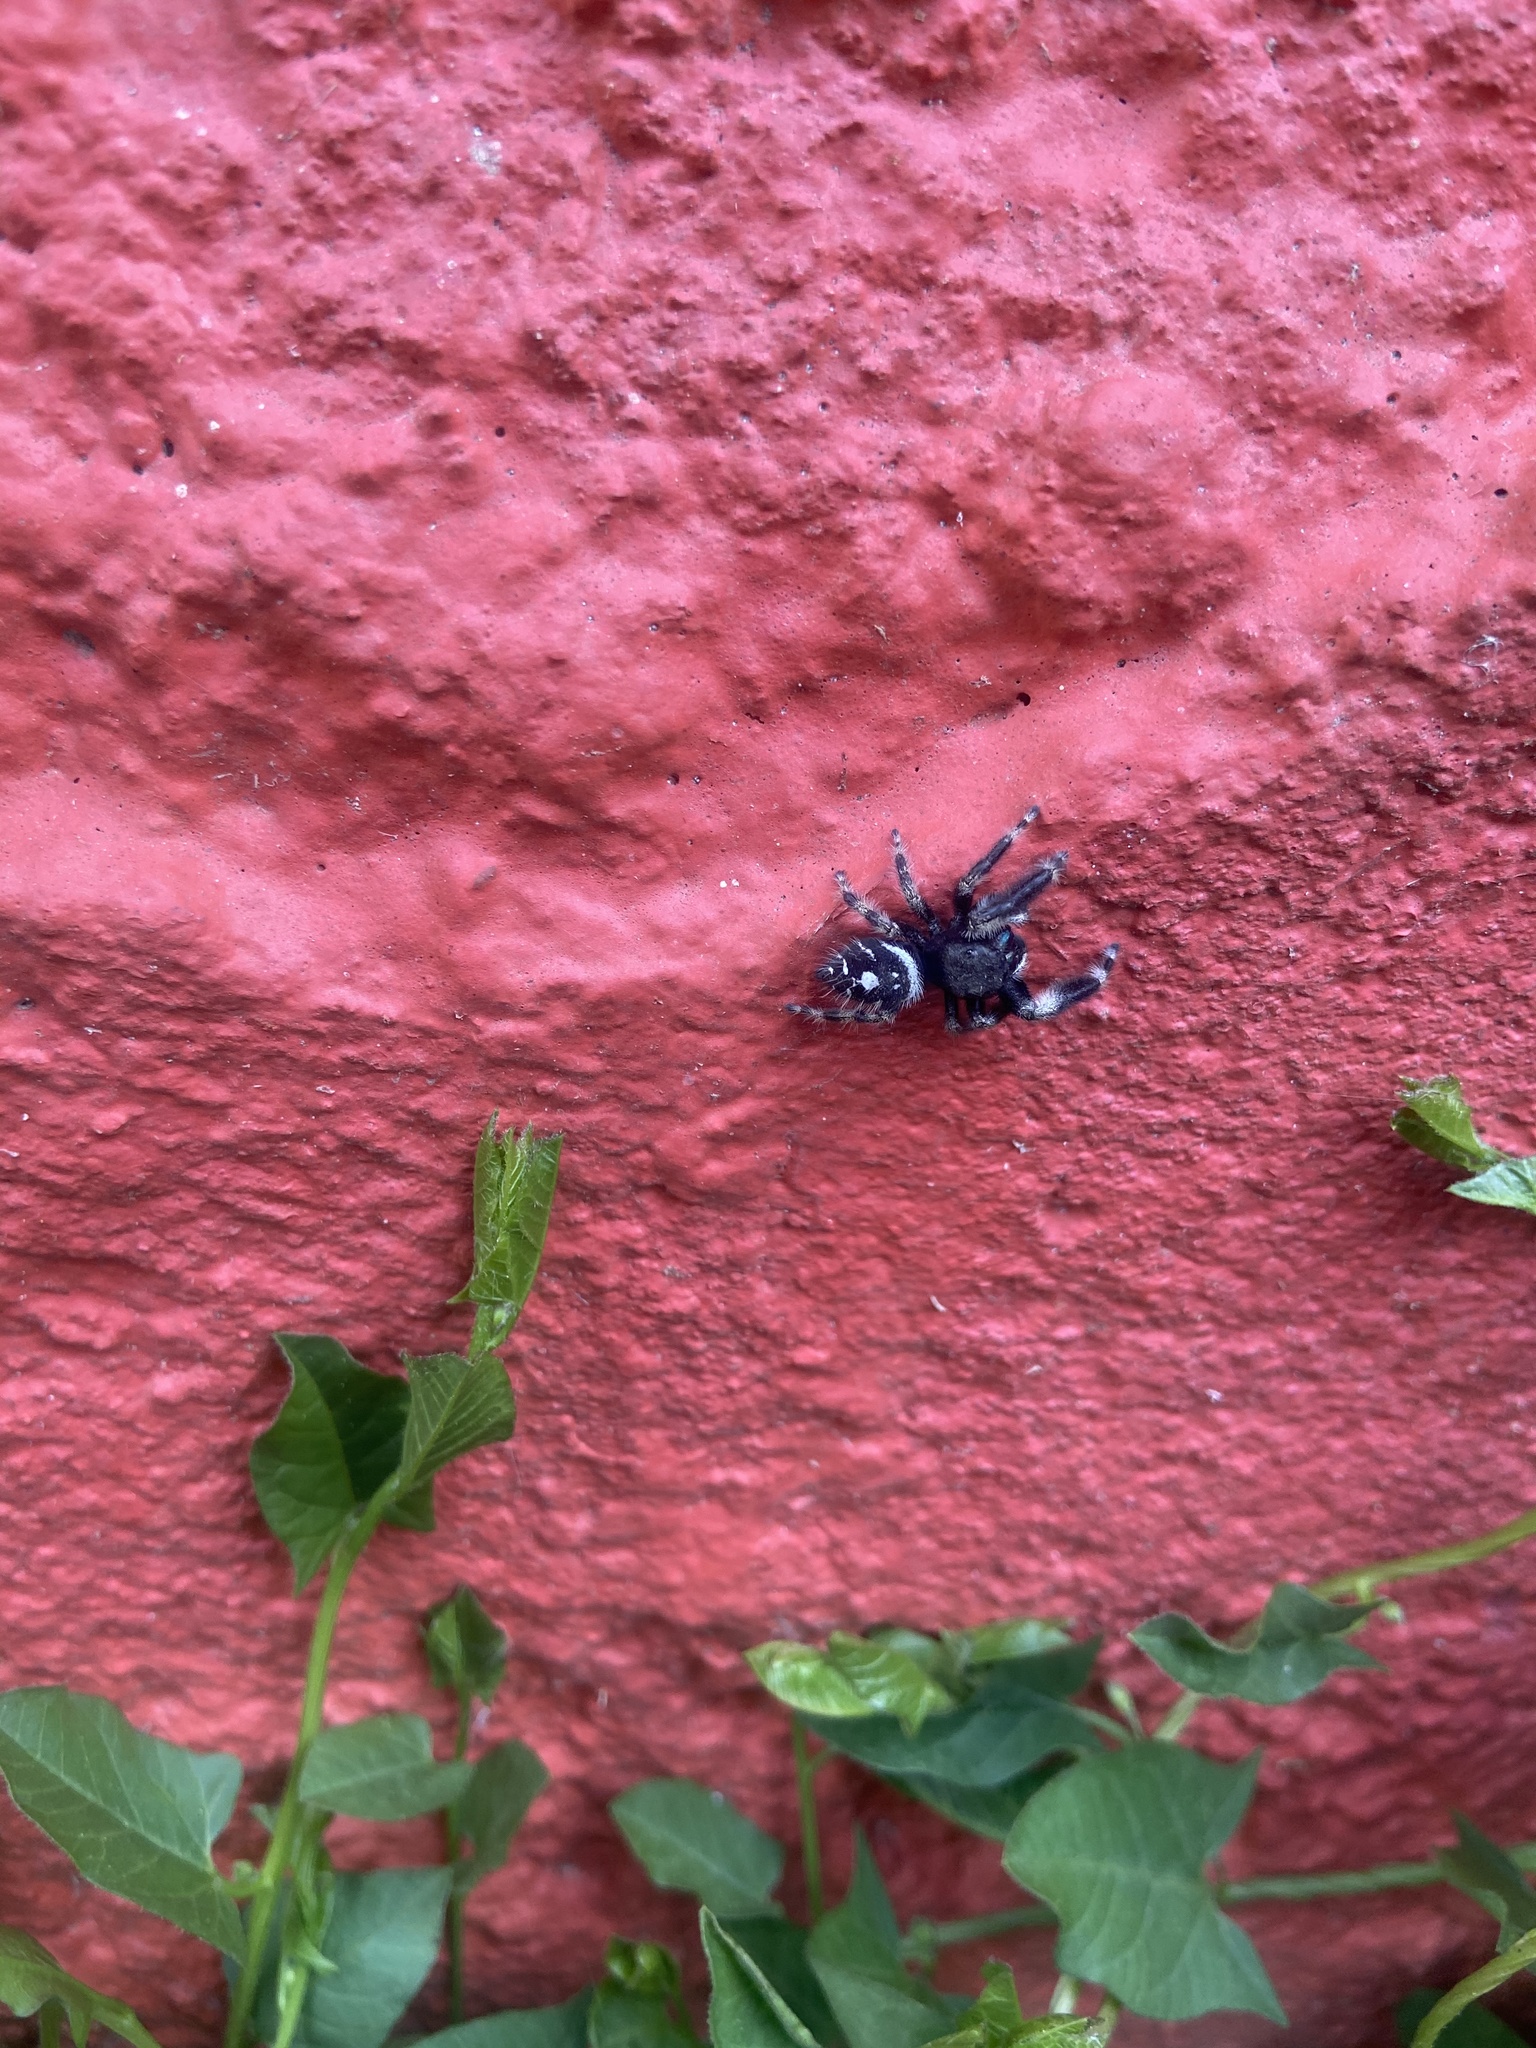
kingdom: Animalia
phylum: Arthropoda
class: Arachnida
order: Araneae
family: Salticidae
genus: Phidippus
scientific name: Phidippus audax
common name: Bold jumper
